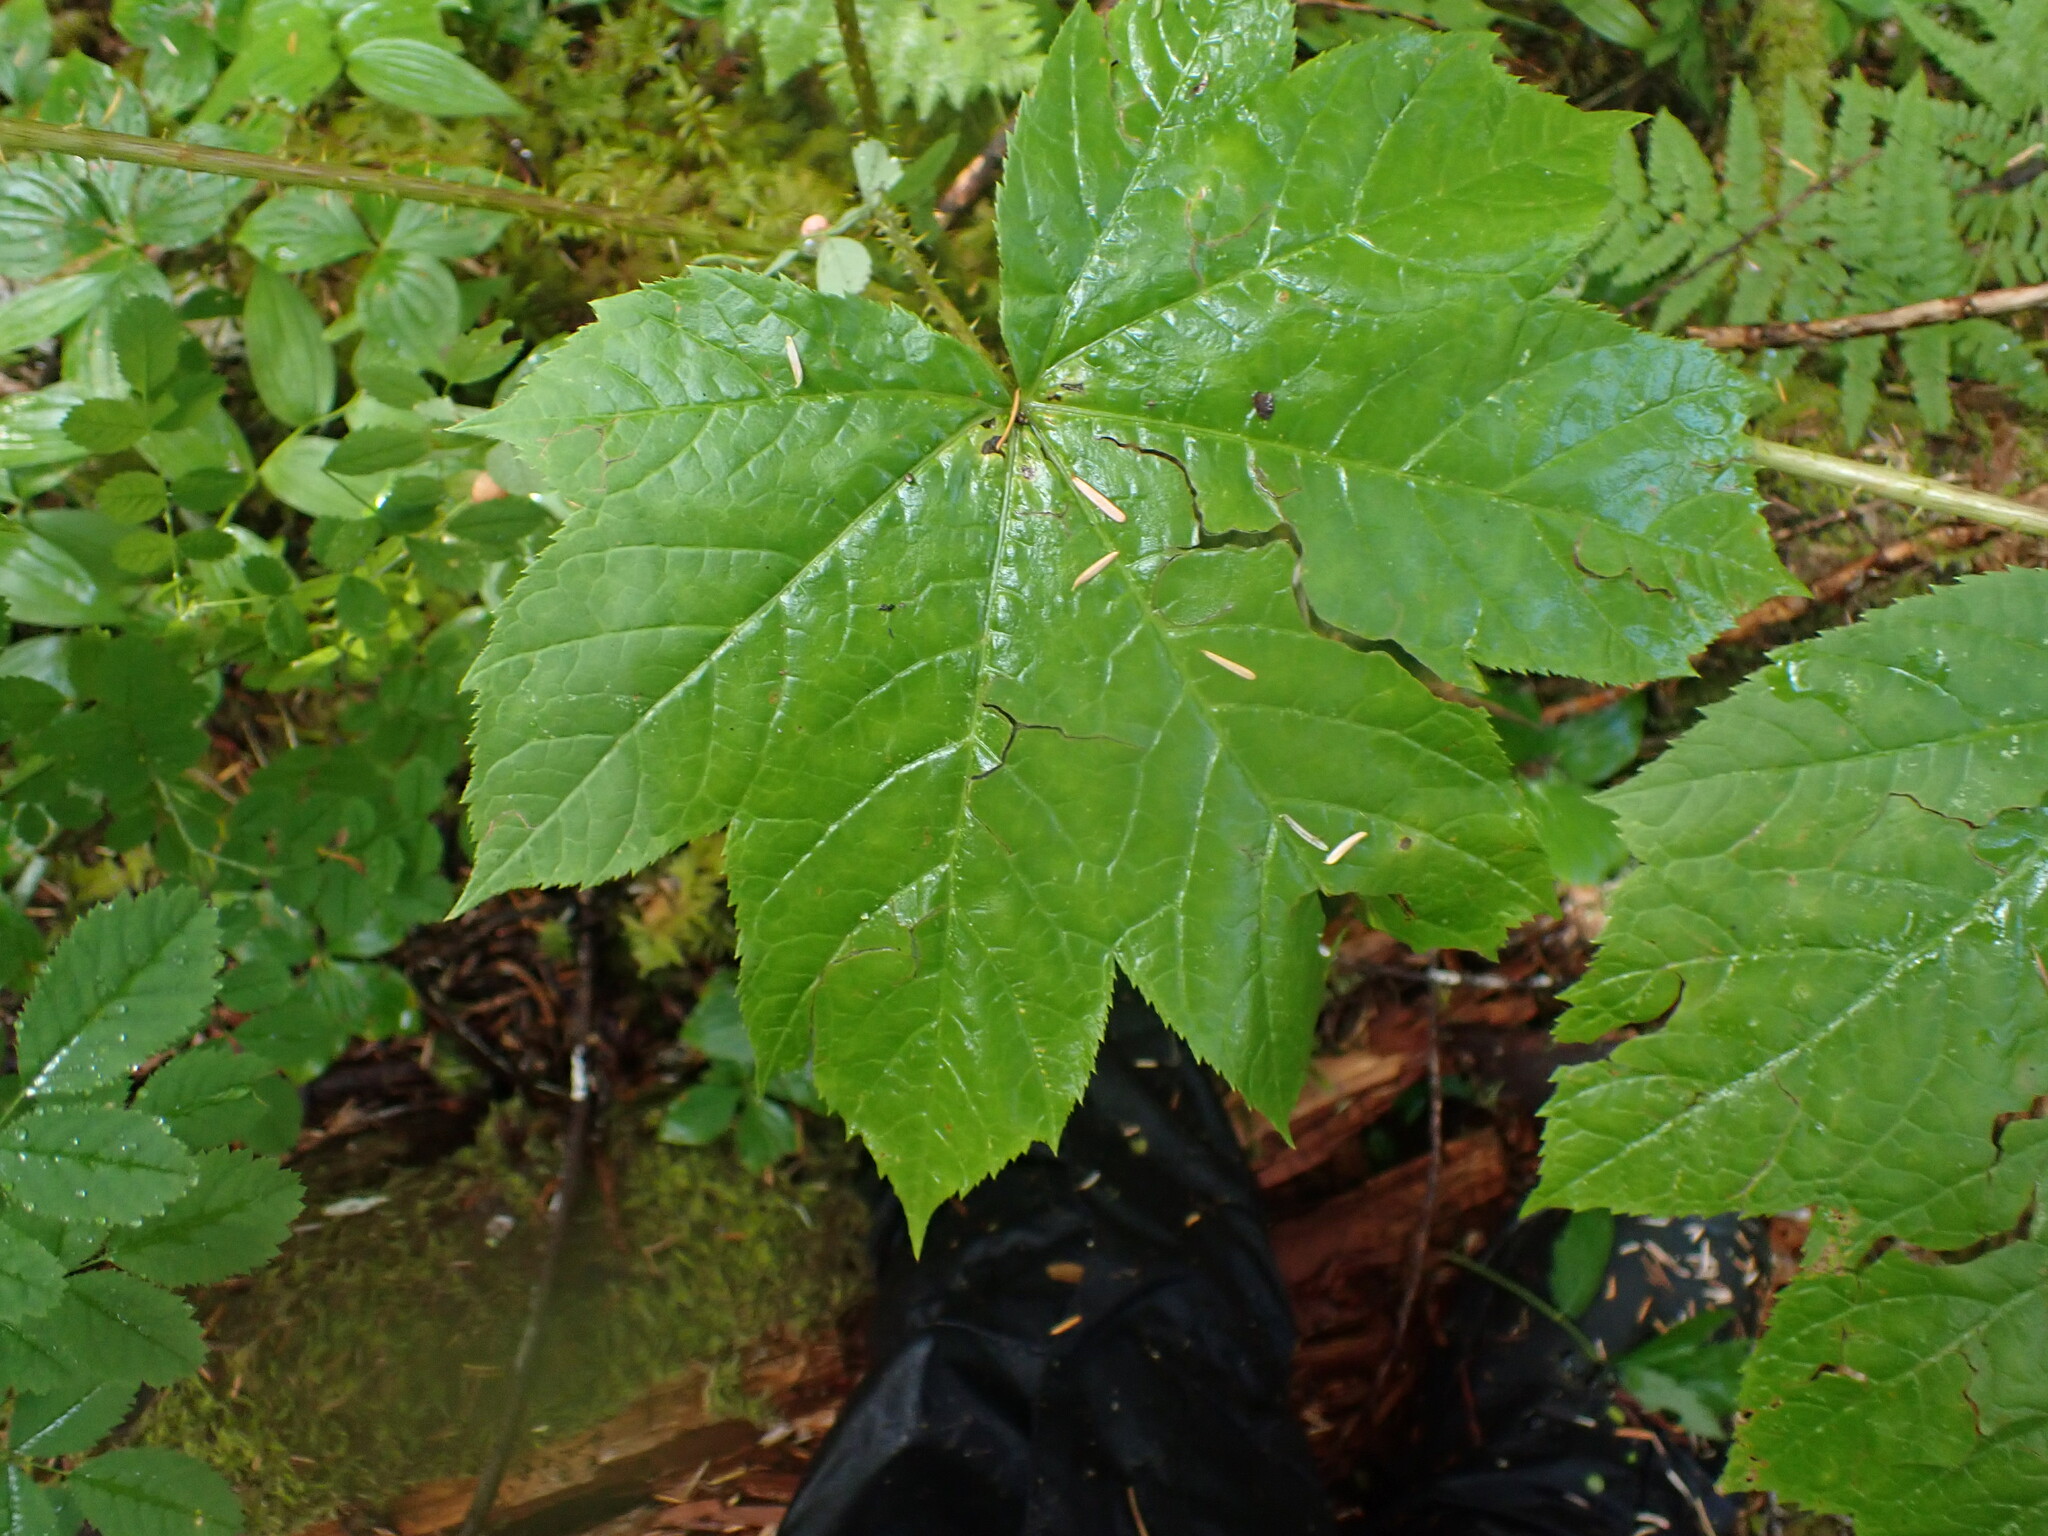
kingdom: Plantae
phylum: Tracheophyta
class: Magnoliopsida
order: Apiales
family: Araliaceae
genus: Oplopanax
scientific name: Oplopanax horridus
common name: Devil's walking-stick
